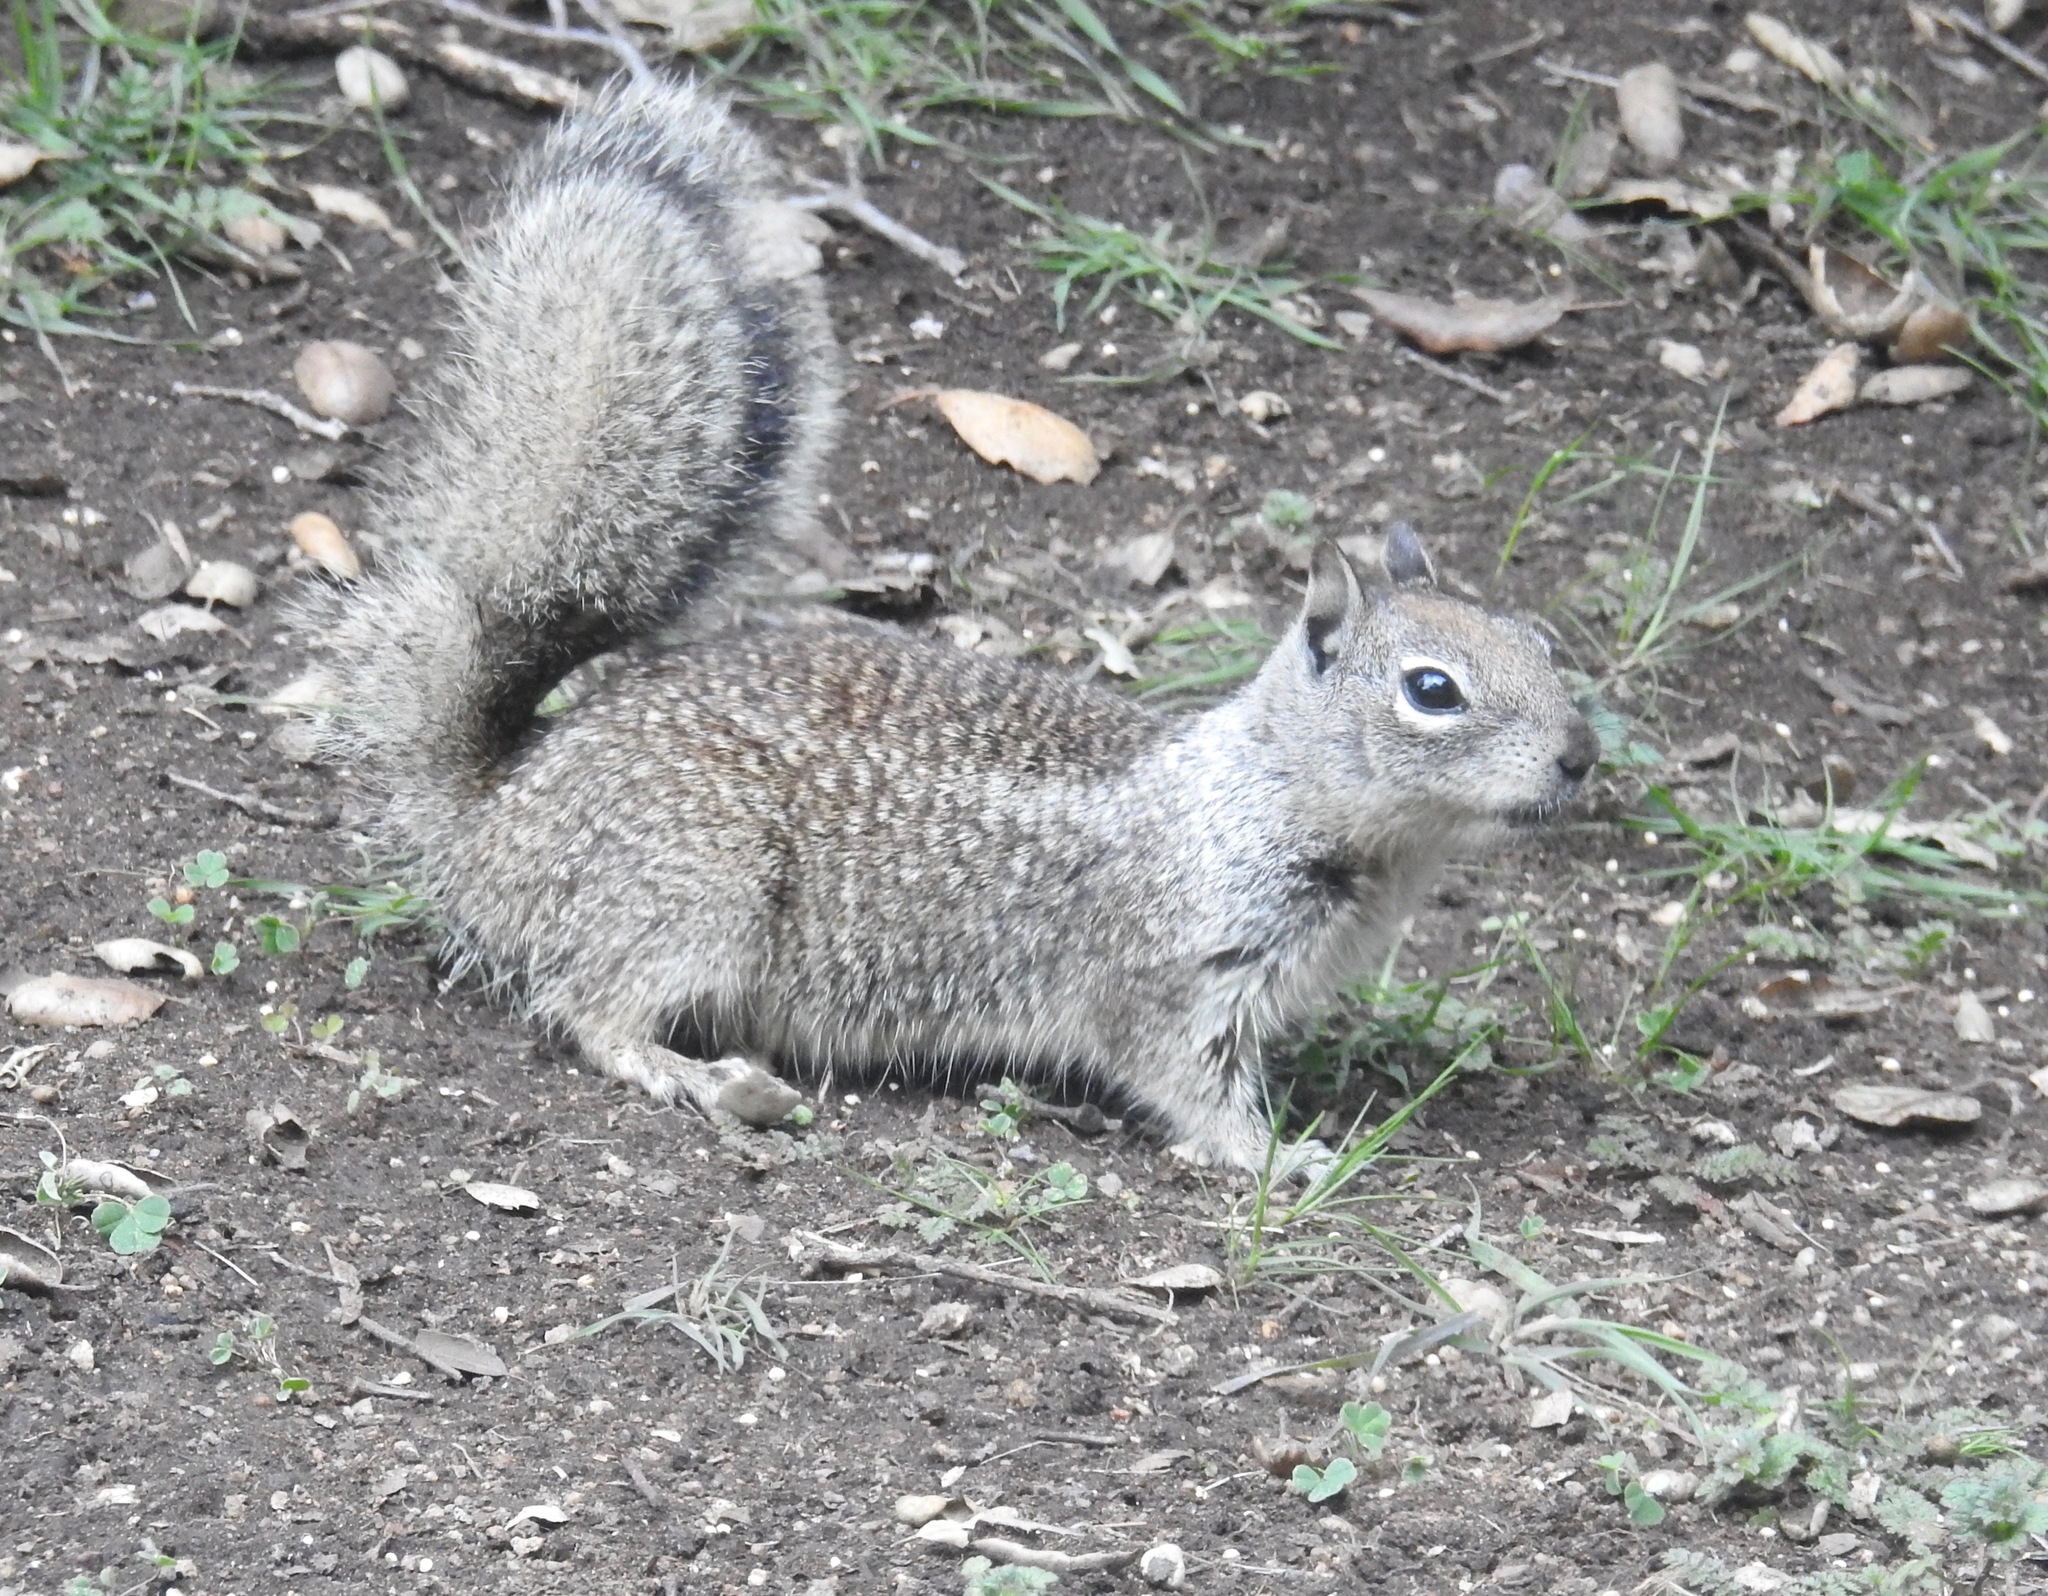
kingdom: Animalia
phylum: Chordata
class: Mammalia
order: Rodentia
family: Sciuridae
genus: Otospermophilus
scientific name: Otospermophilus beecheyi
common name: California ground squirrel
